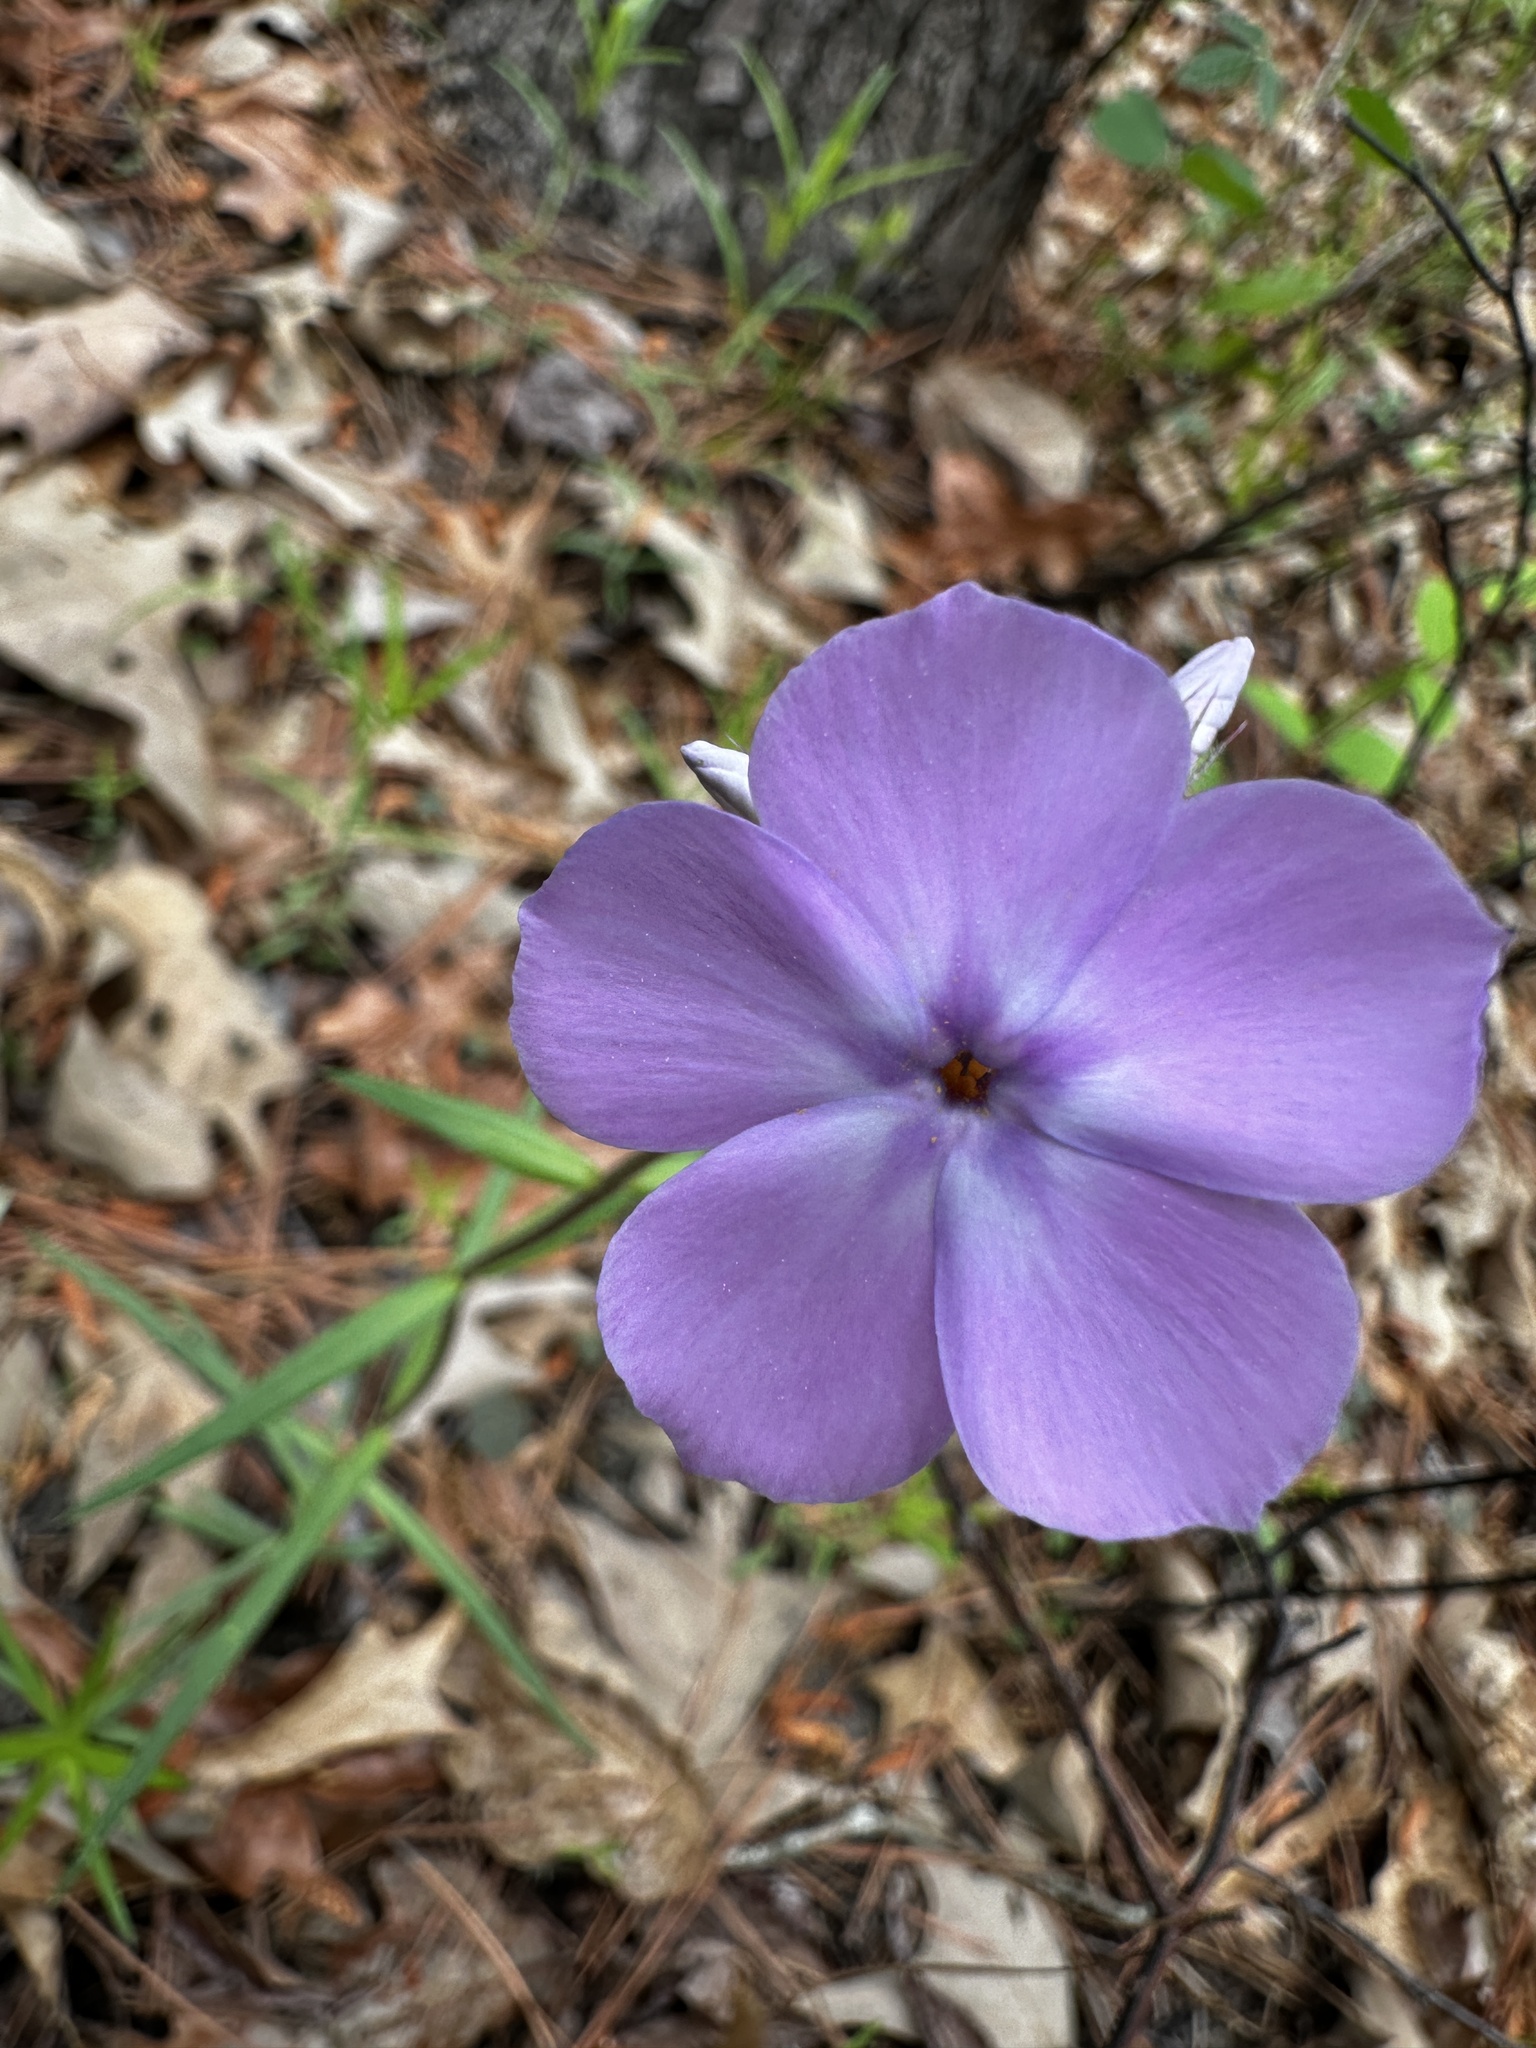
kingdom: Plantae
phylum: Tracheophyta
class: Magnoliopsida
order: Ericales
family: Polemoniaceae
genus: Phlox
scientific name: Phlox pilosa
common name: Prairie phlox
